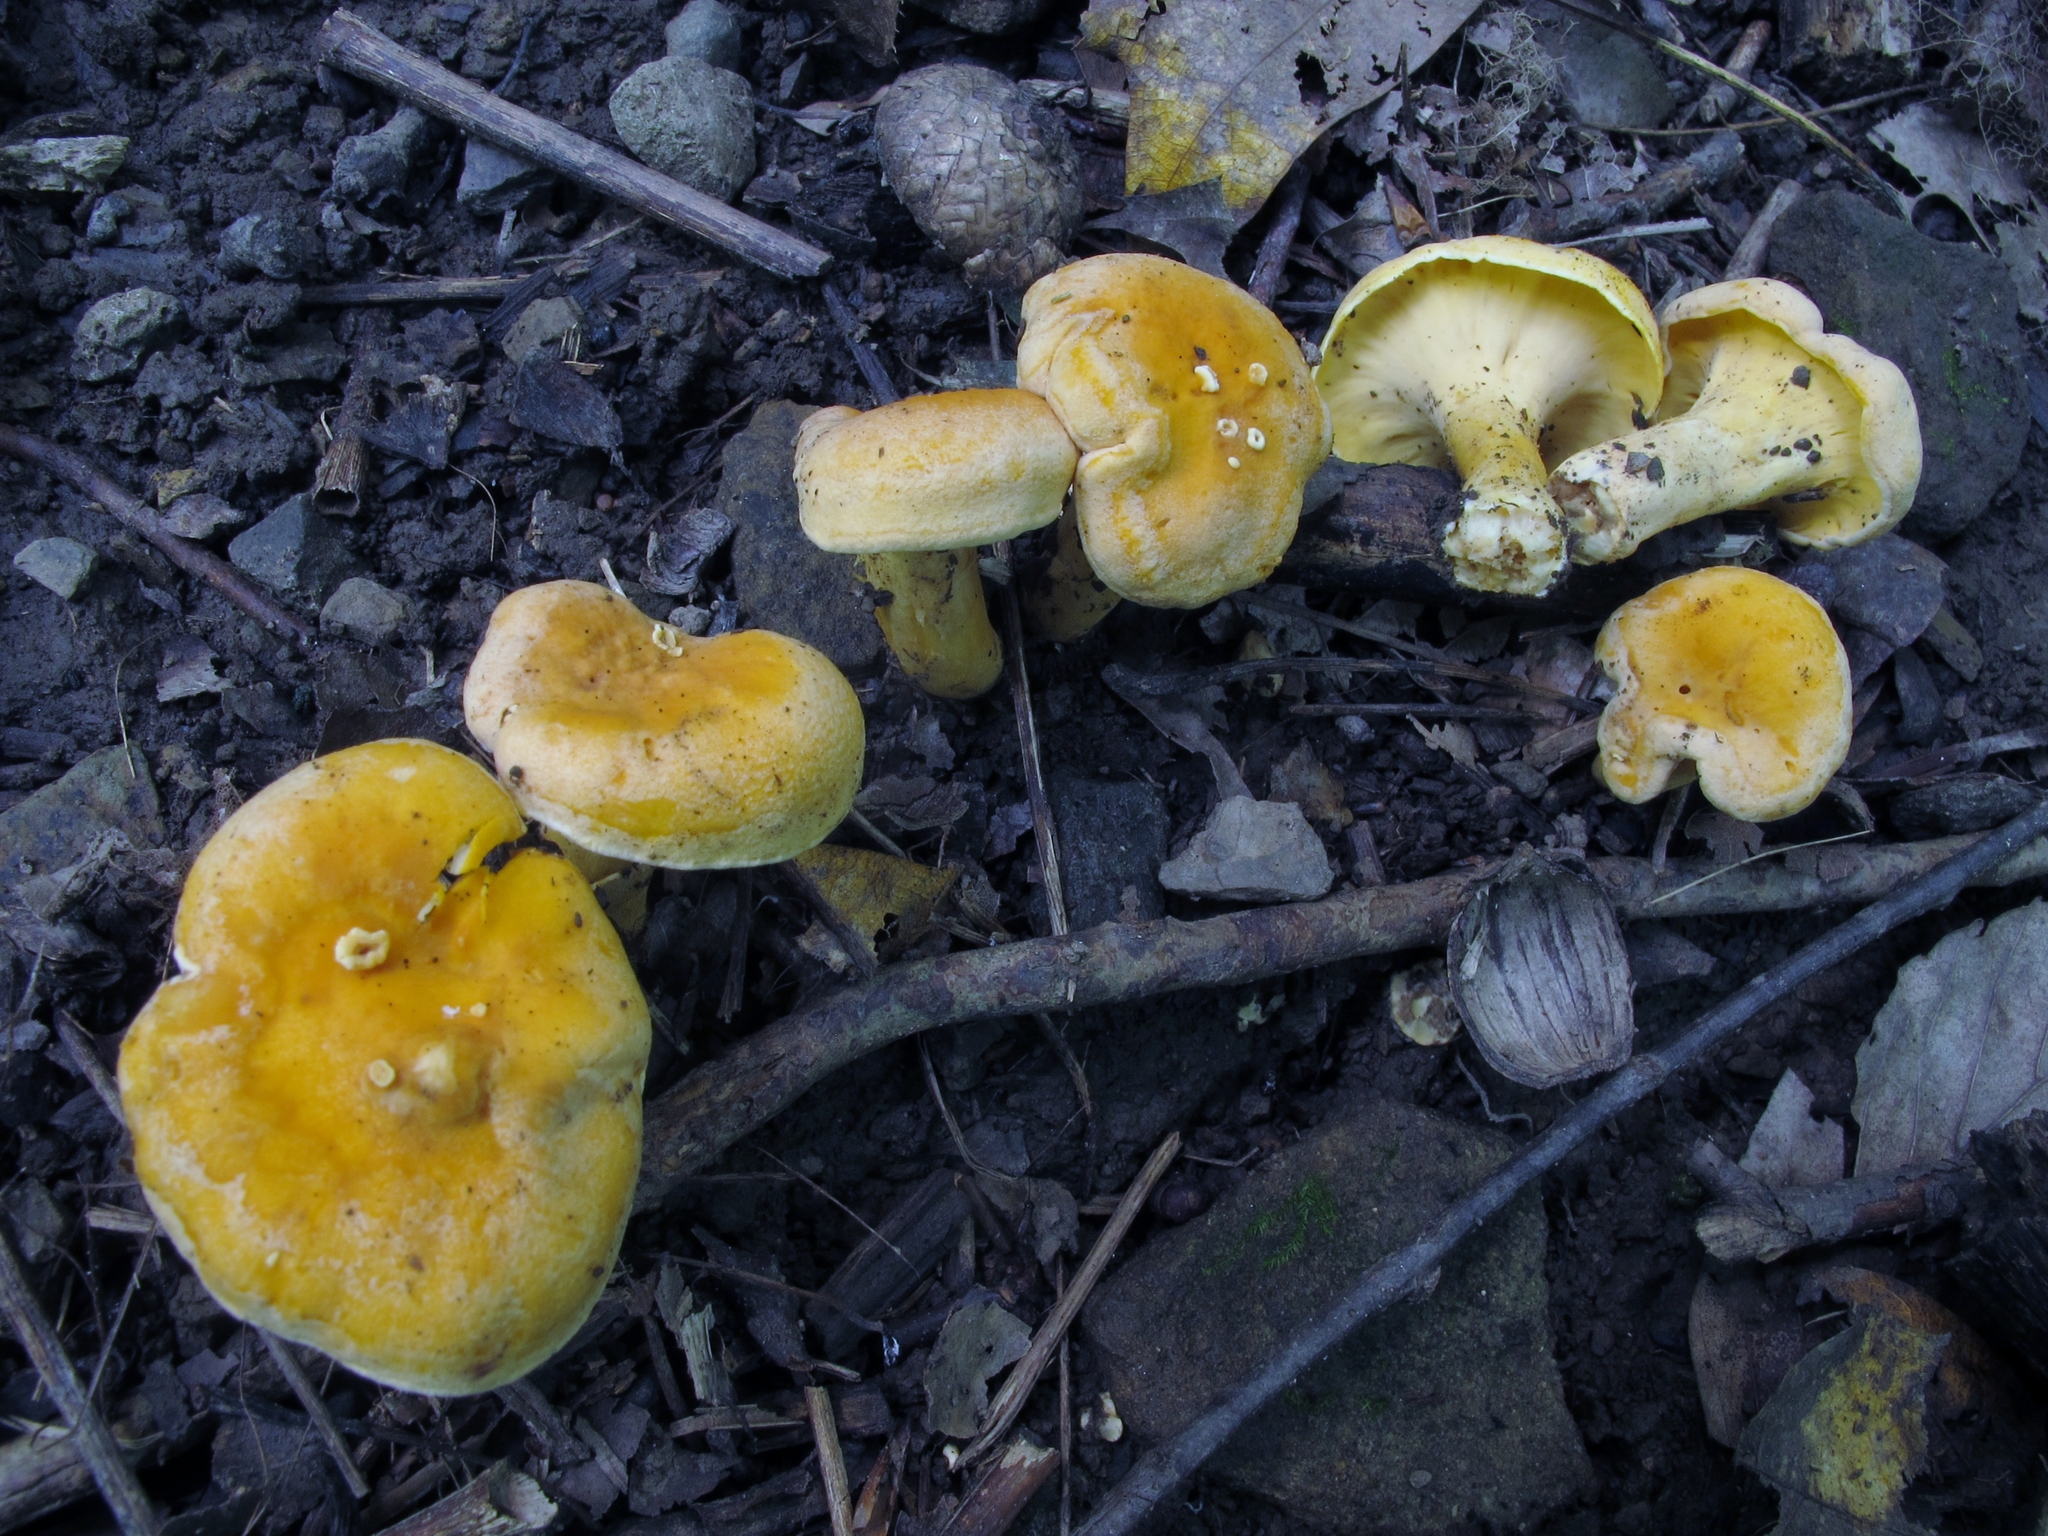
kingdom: Fungi
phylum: Basidiomycota
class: Agaricomycetes
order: Cantharellales
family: Hydnaceae
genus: Cantharellus
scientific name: Cantharellus lateritius
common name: Smooth chanterelle
